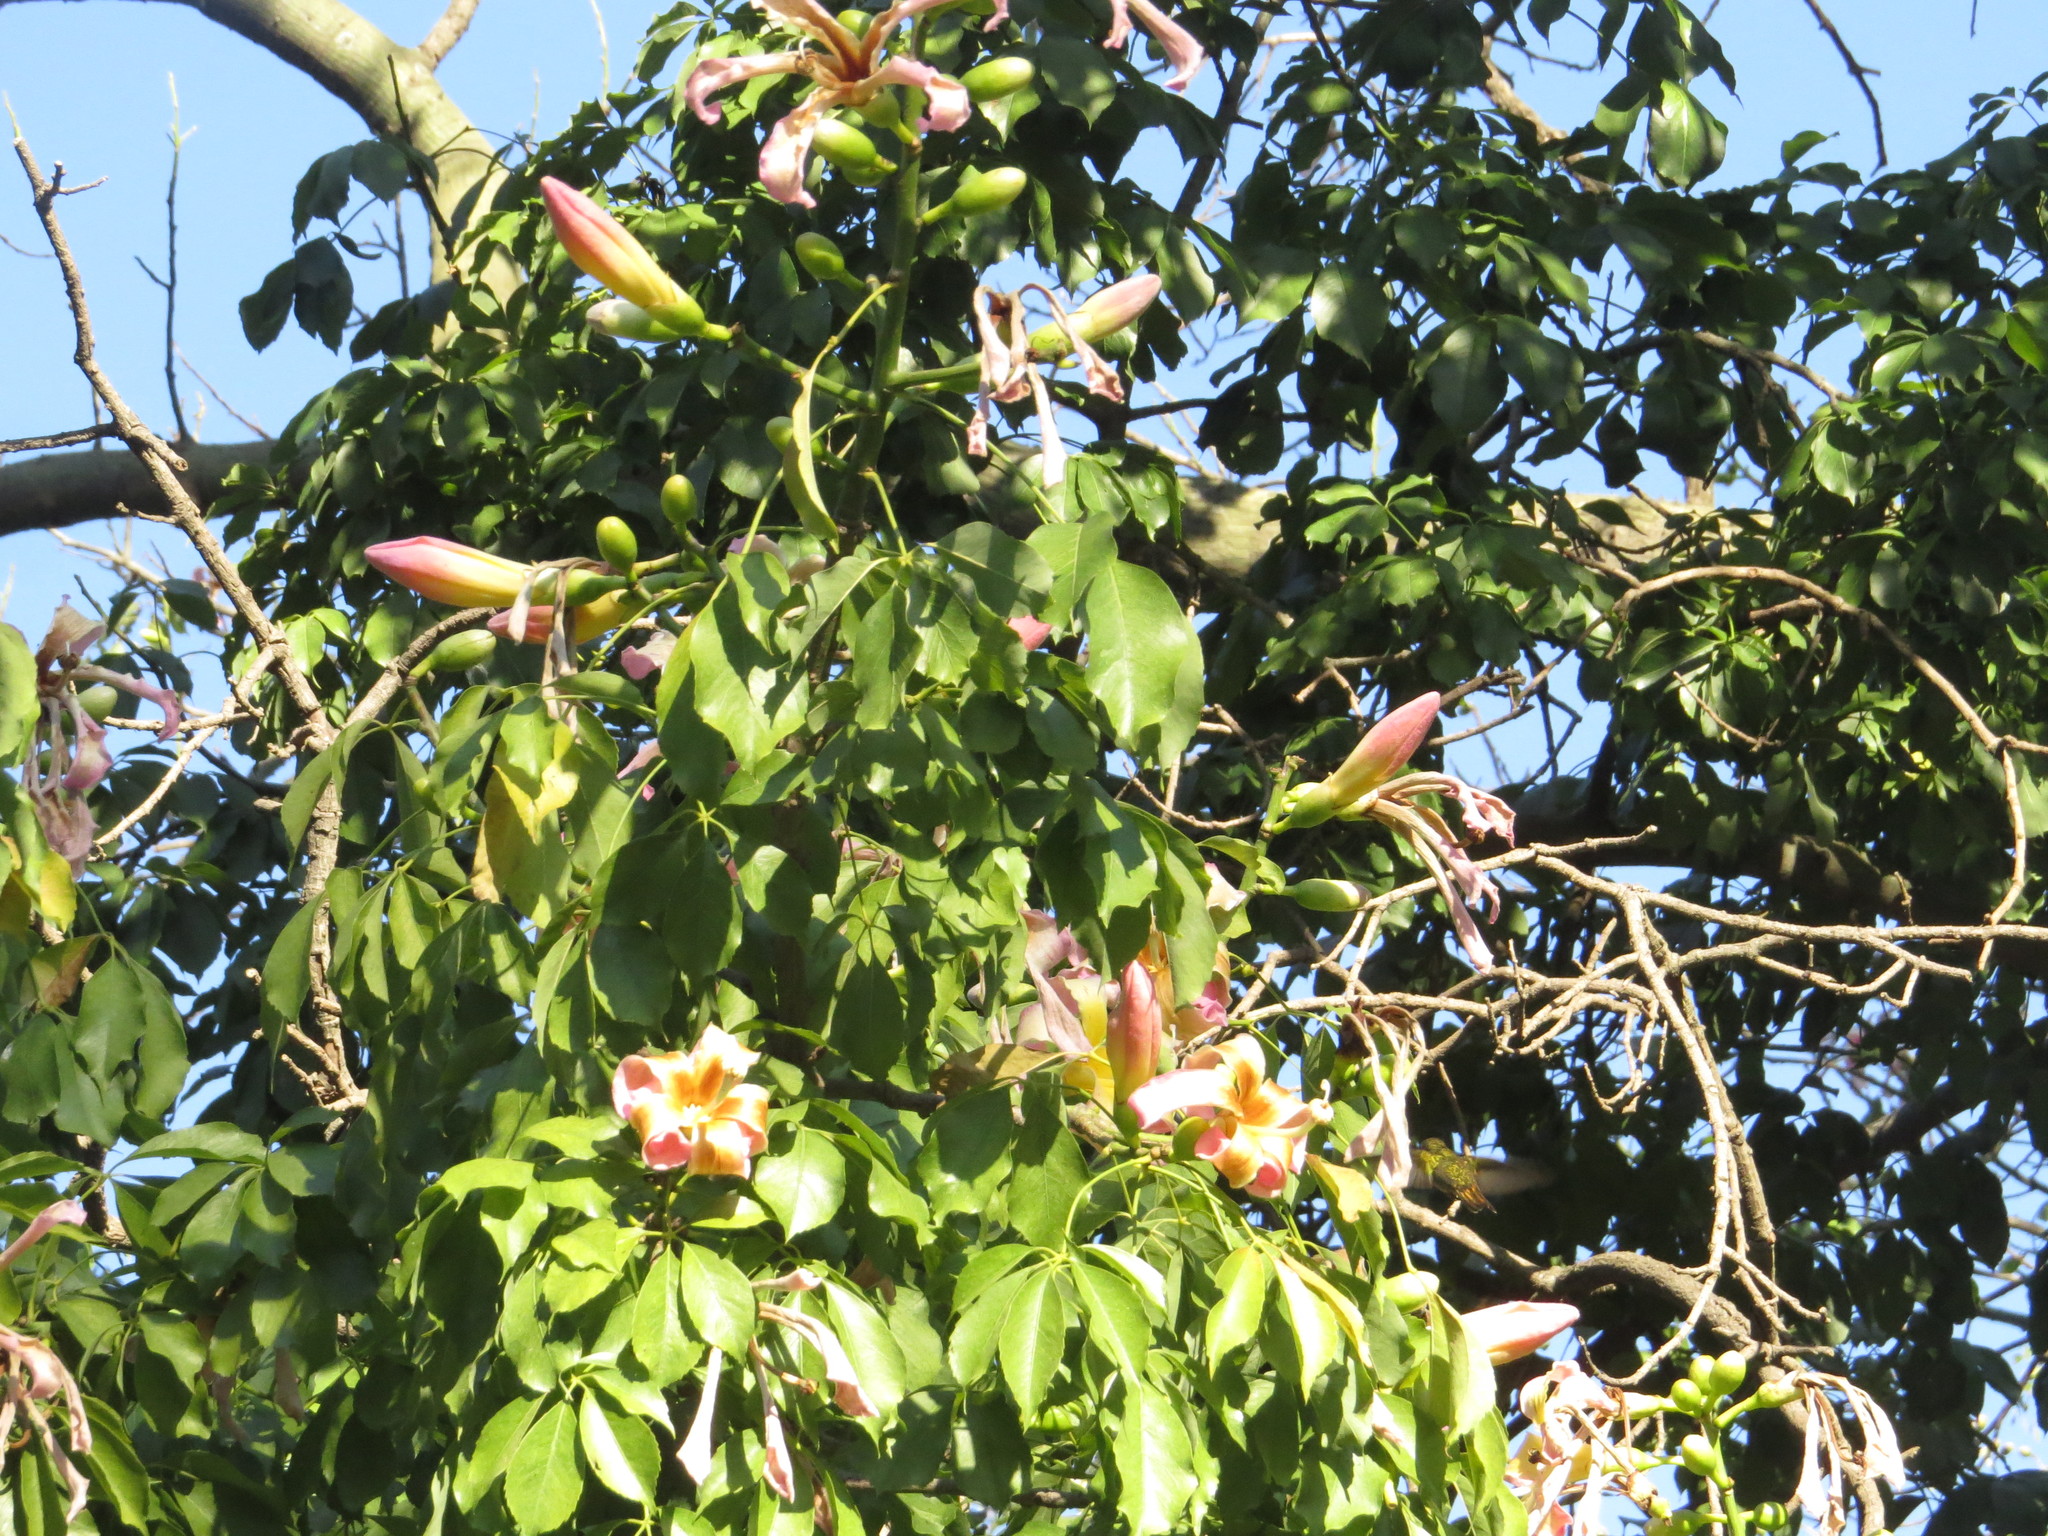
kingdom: Animalia
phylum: Chordata
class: Aves
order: Apodiformes
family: Trochilidae
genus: Hylocharis
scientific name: Hylocharis chrysura
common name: Gilded sapphire
